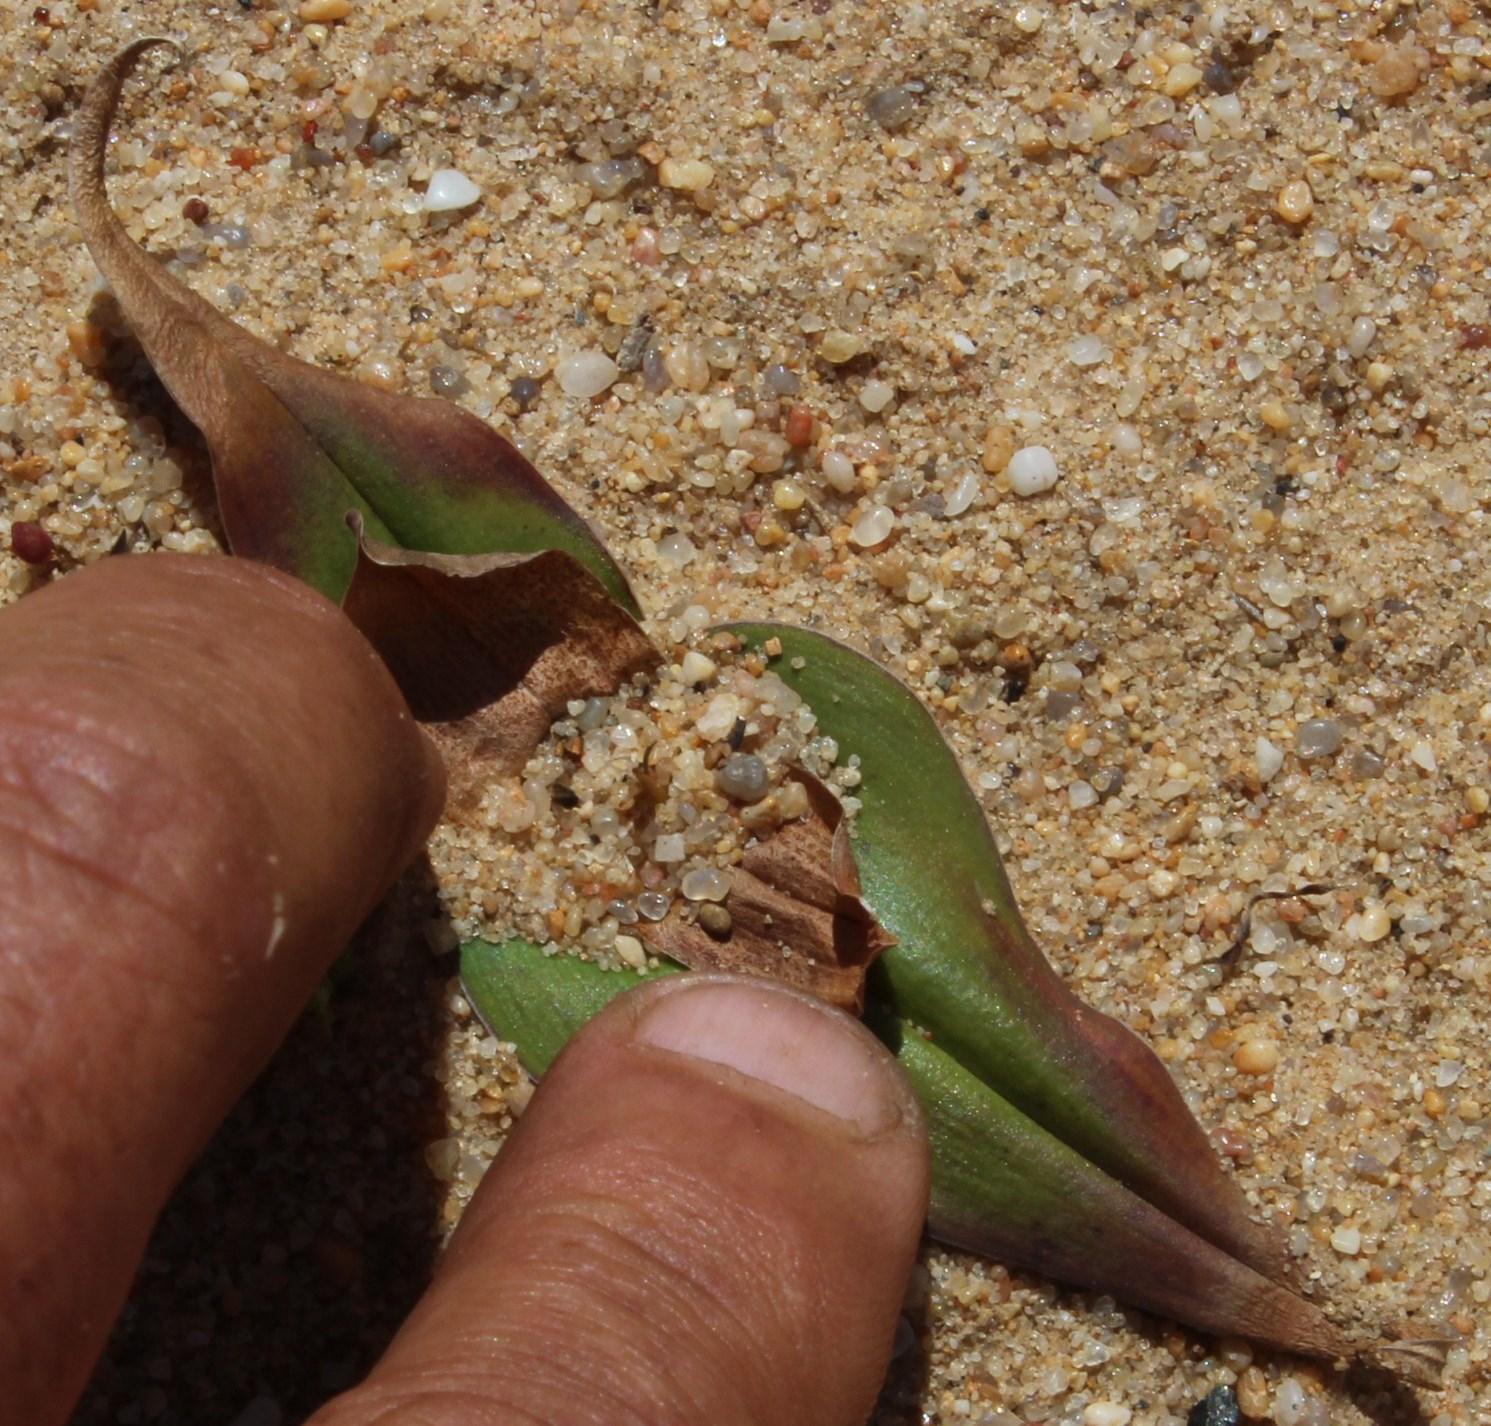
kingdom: Plantae
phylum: Tracheophyta
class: Liliopsida
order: Liliales
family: Colchicaceae
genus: Colchicum
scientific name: Colchicum irroratum
